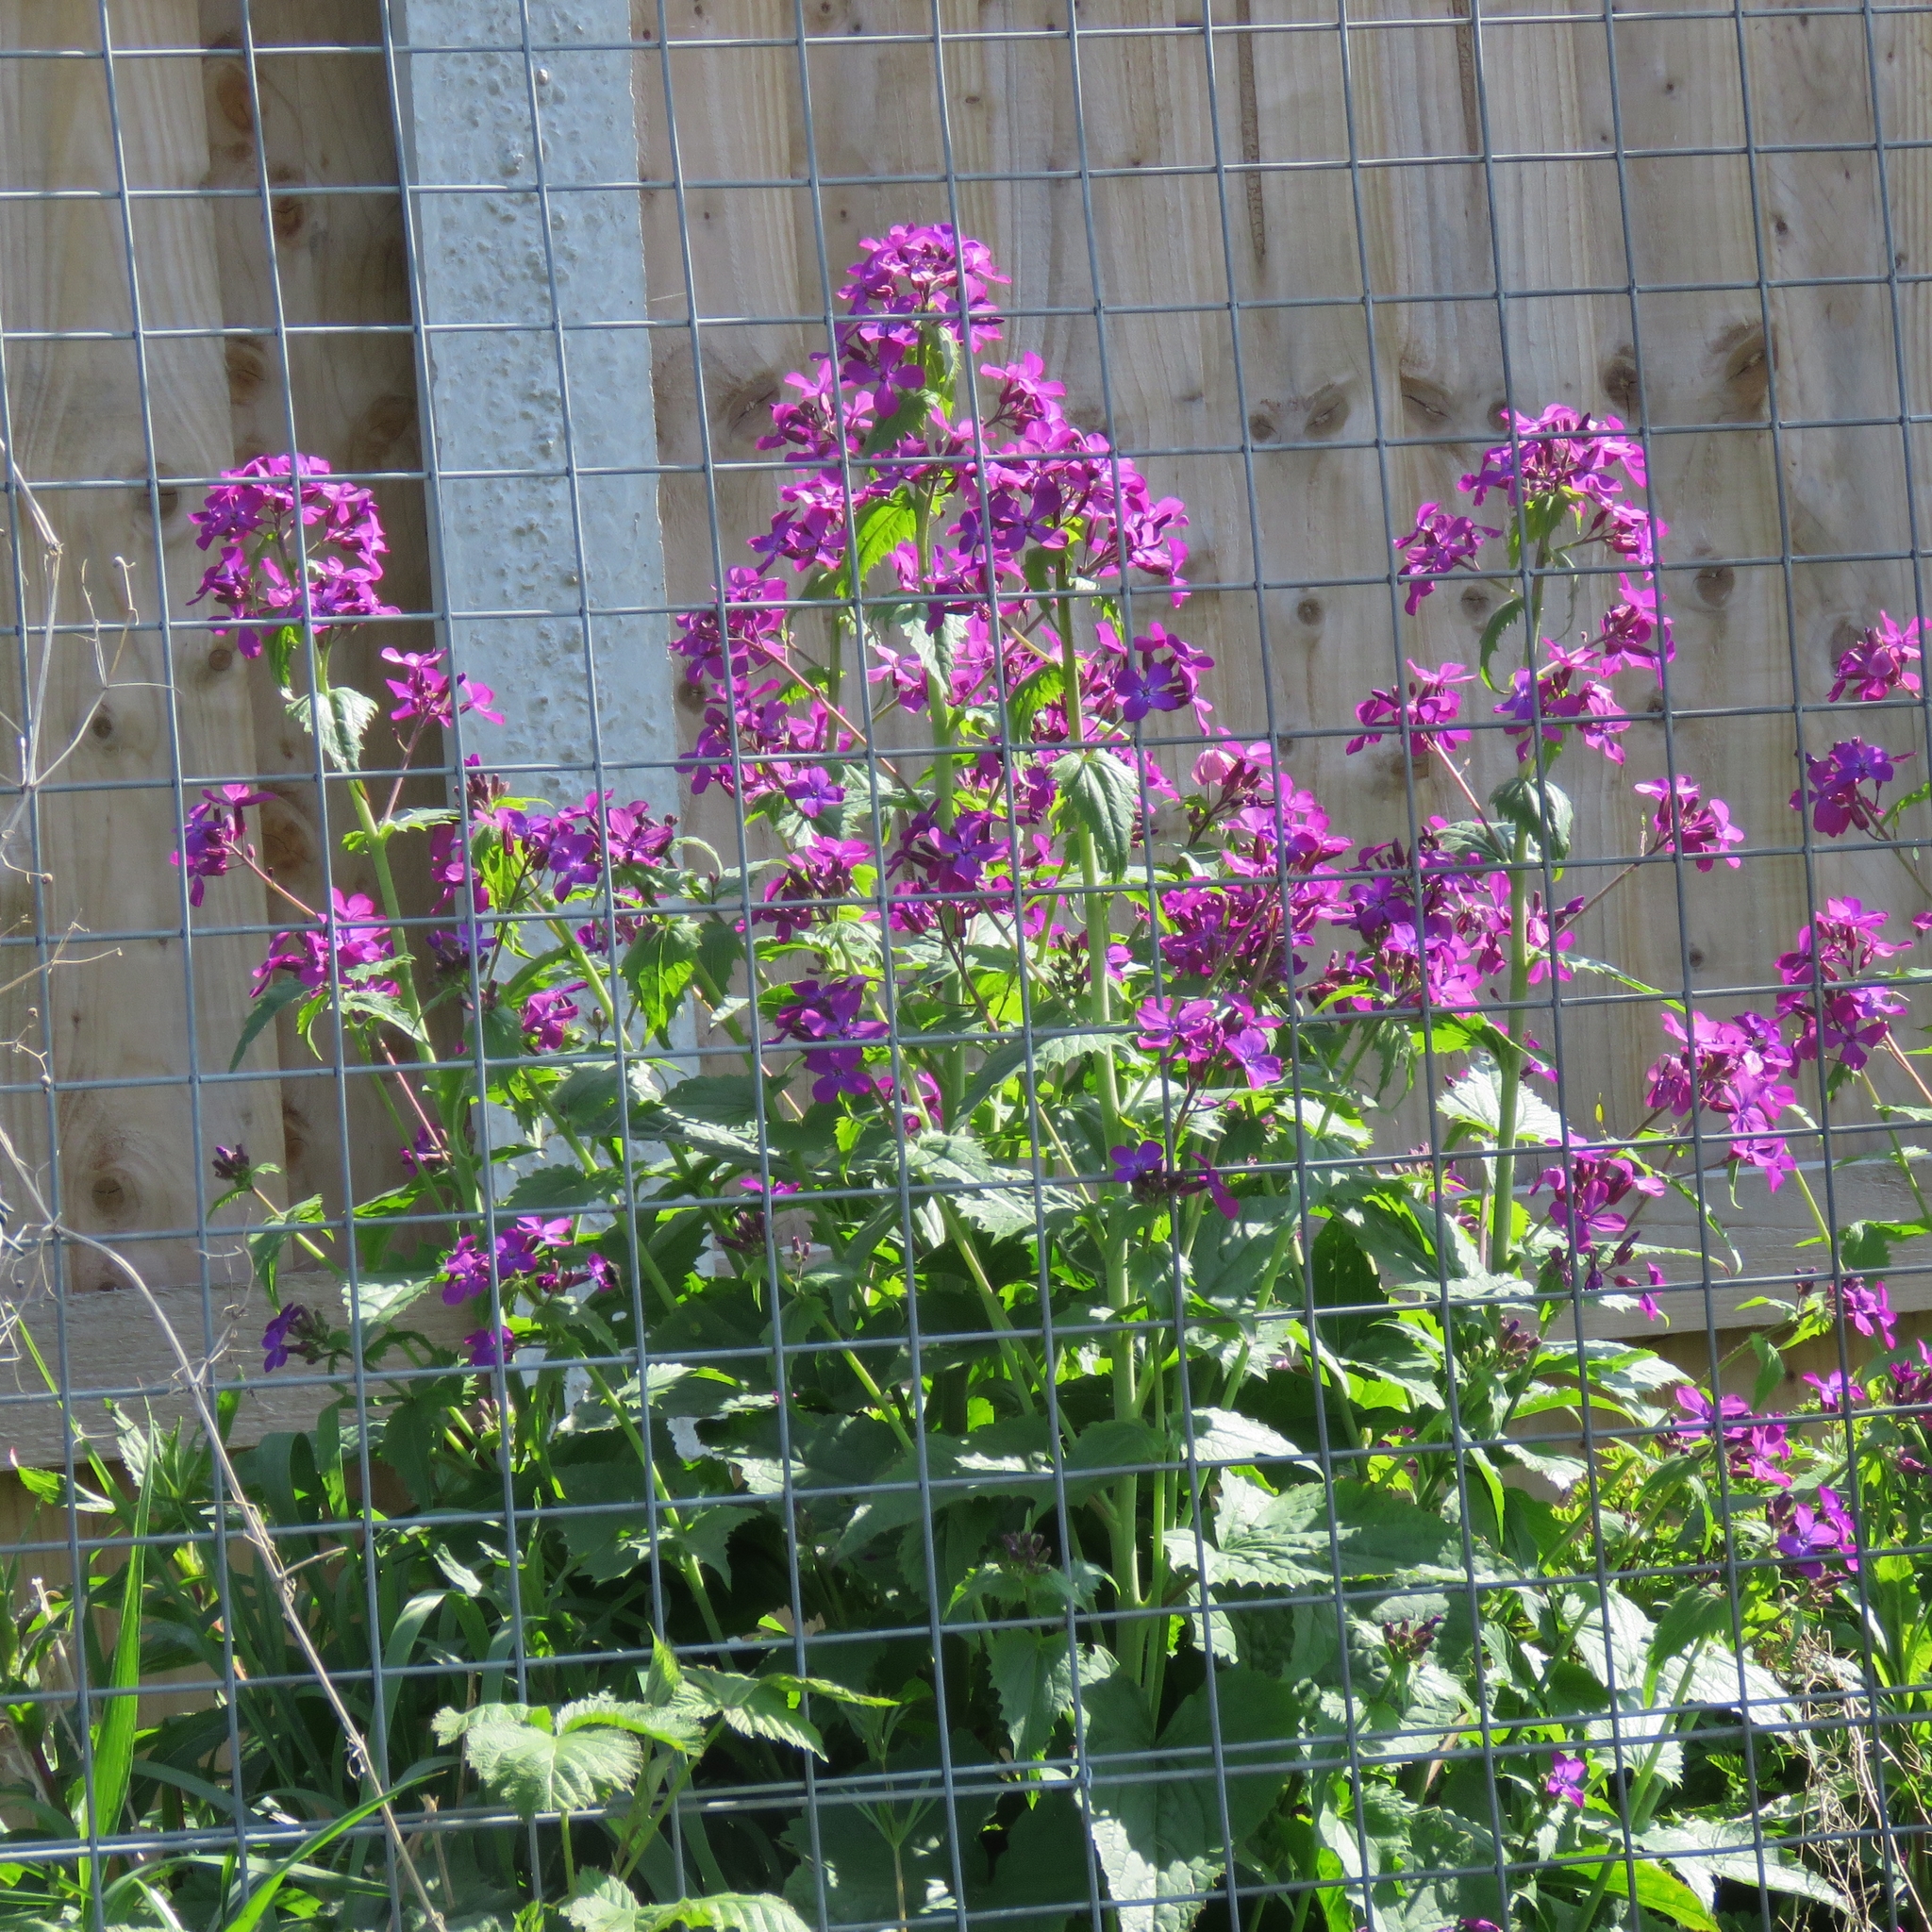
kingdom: Plantae
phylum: Tracheophyta
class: Magnoliopsida
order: Brassicales
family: Brassicaceae
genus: Lunaria
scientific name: Lunaria annua
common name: Honesty
